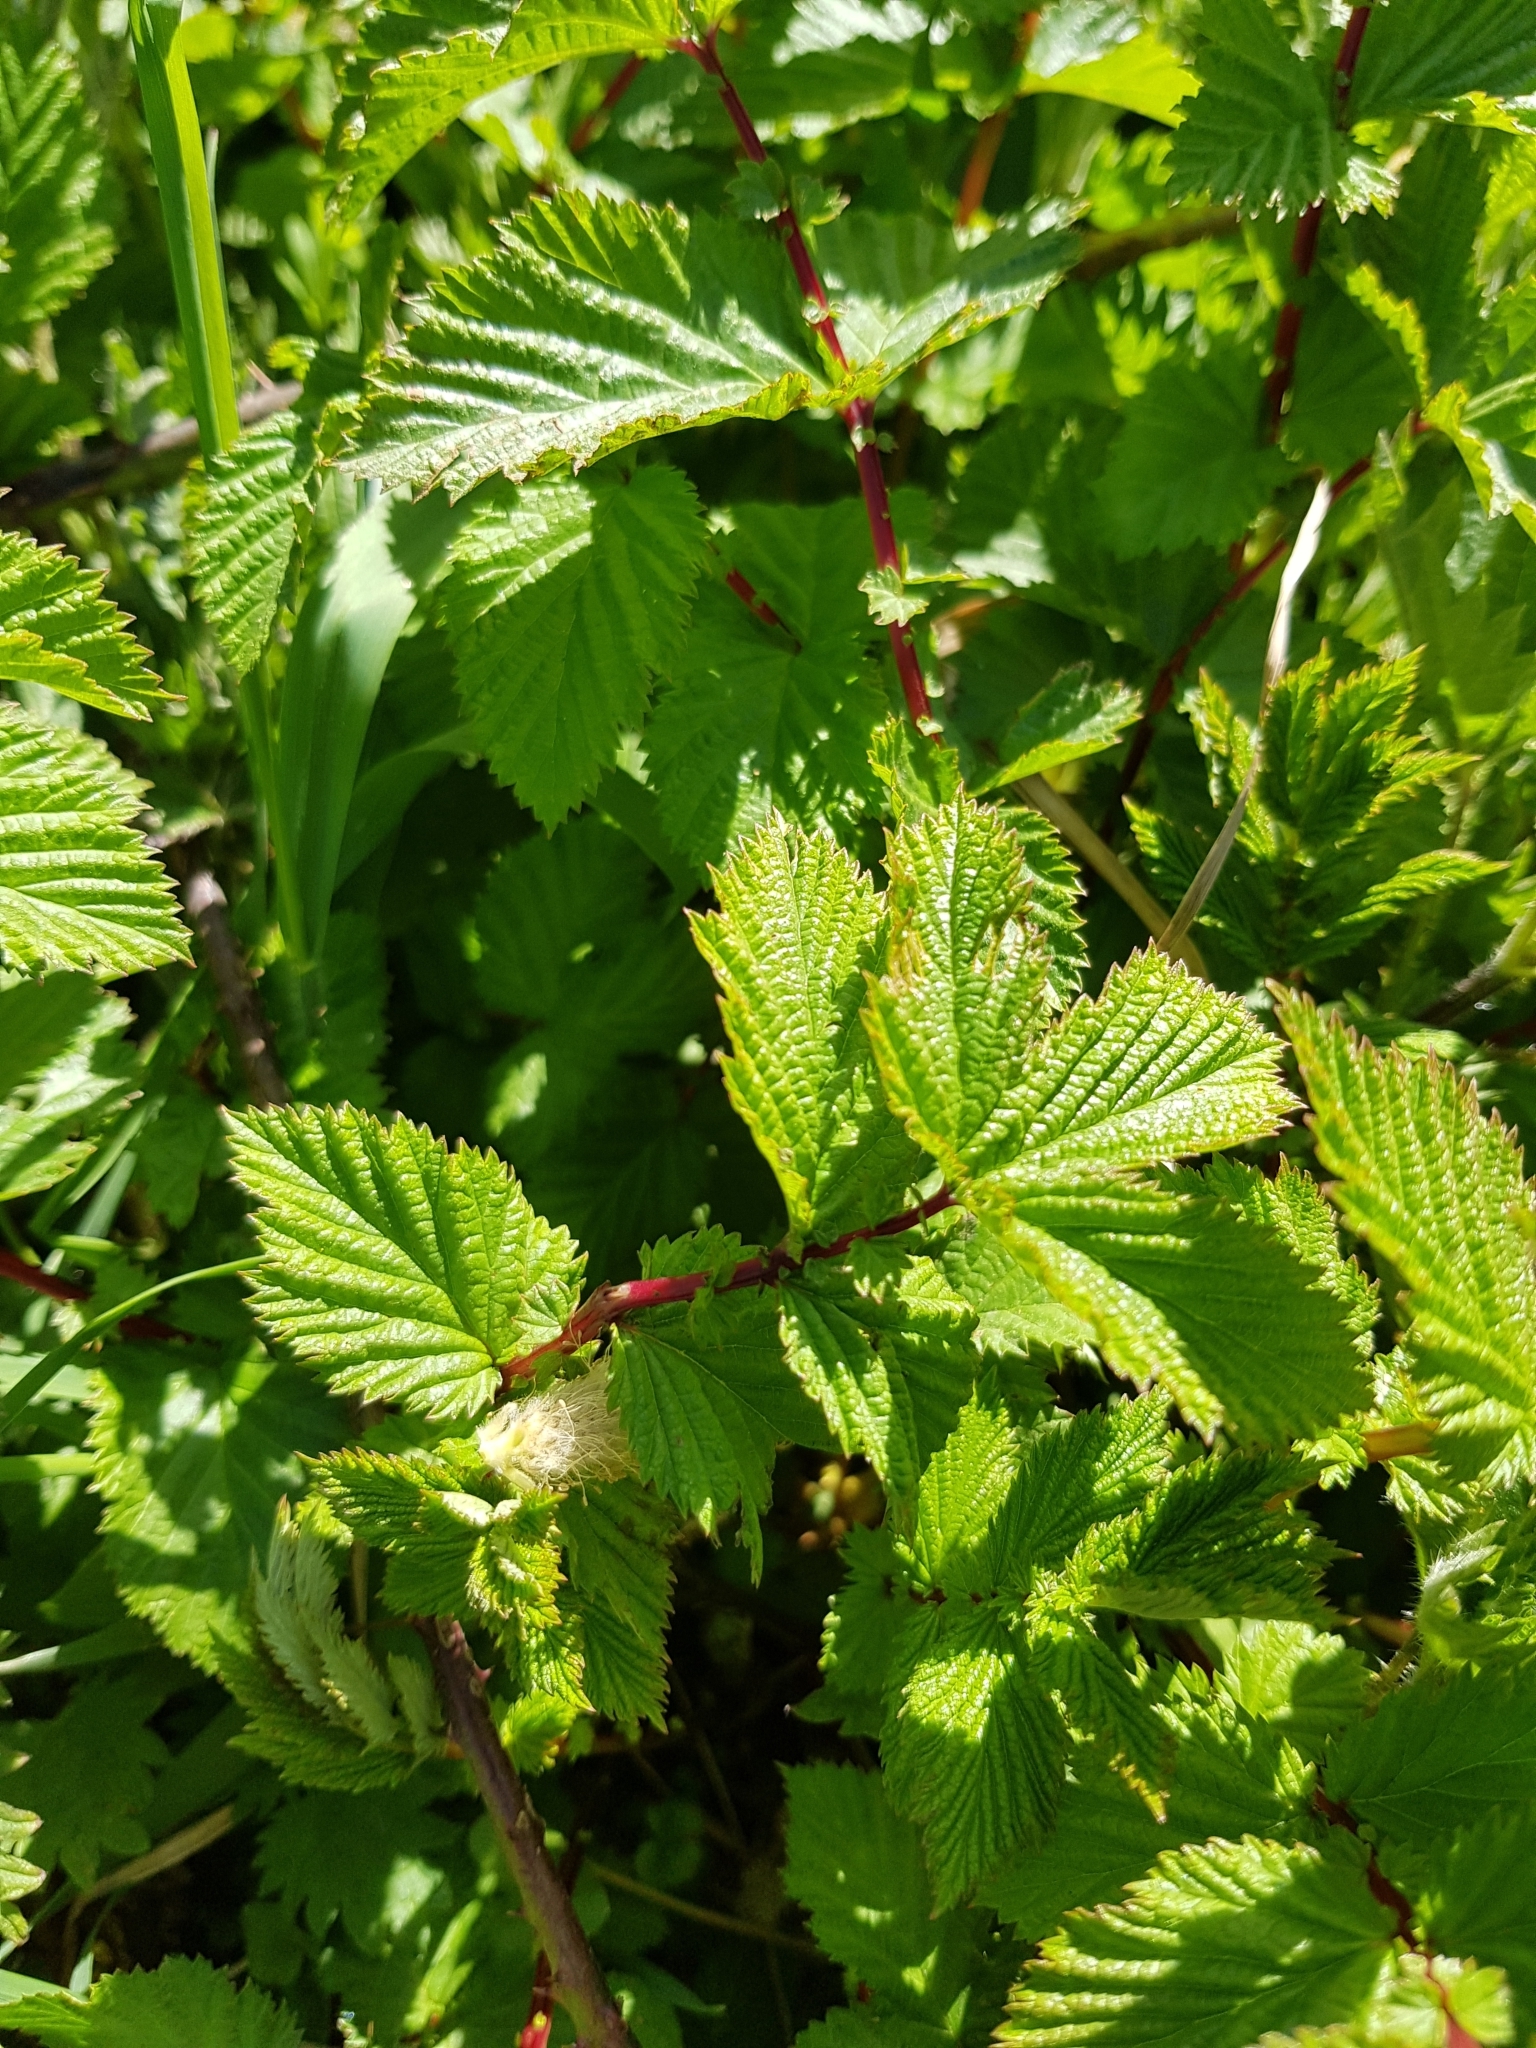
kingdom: Plantae
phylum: Tracheophyta
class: Magnoliopsida
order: Rosales
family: Rosaceae
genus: Filipendula
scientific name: Filipendula ulmaria
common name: Meadowsweet
